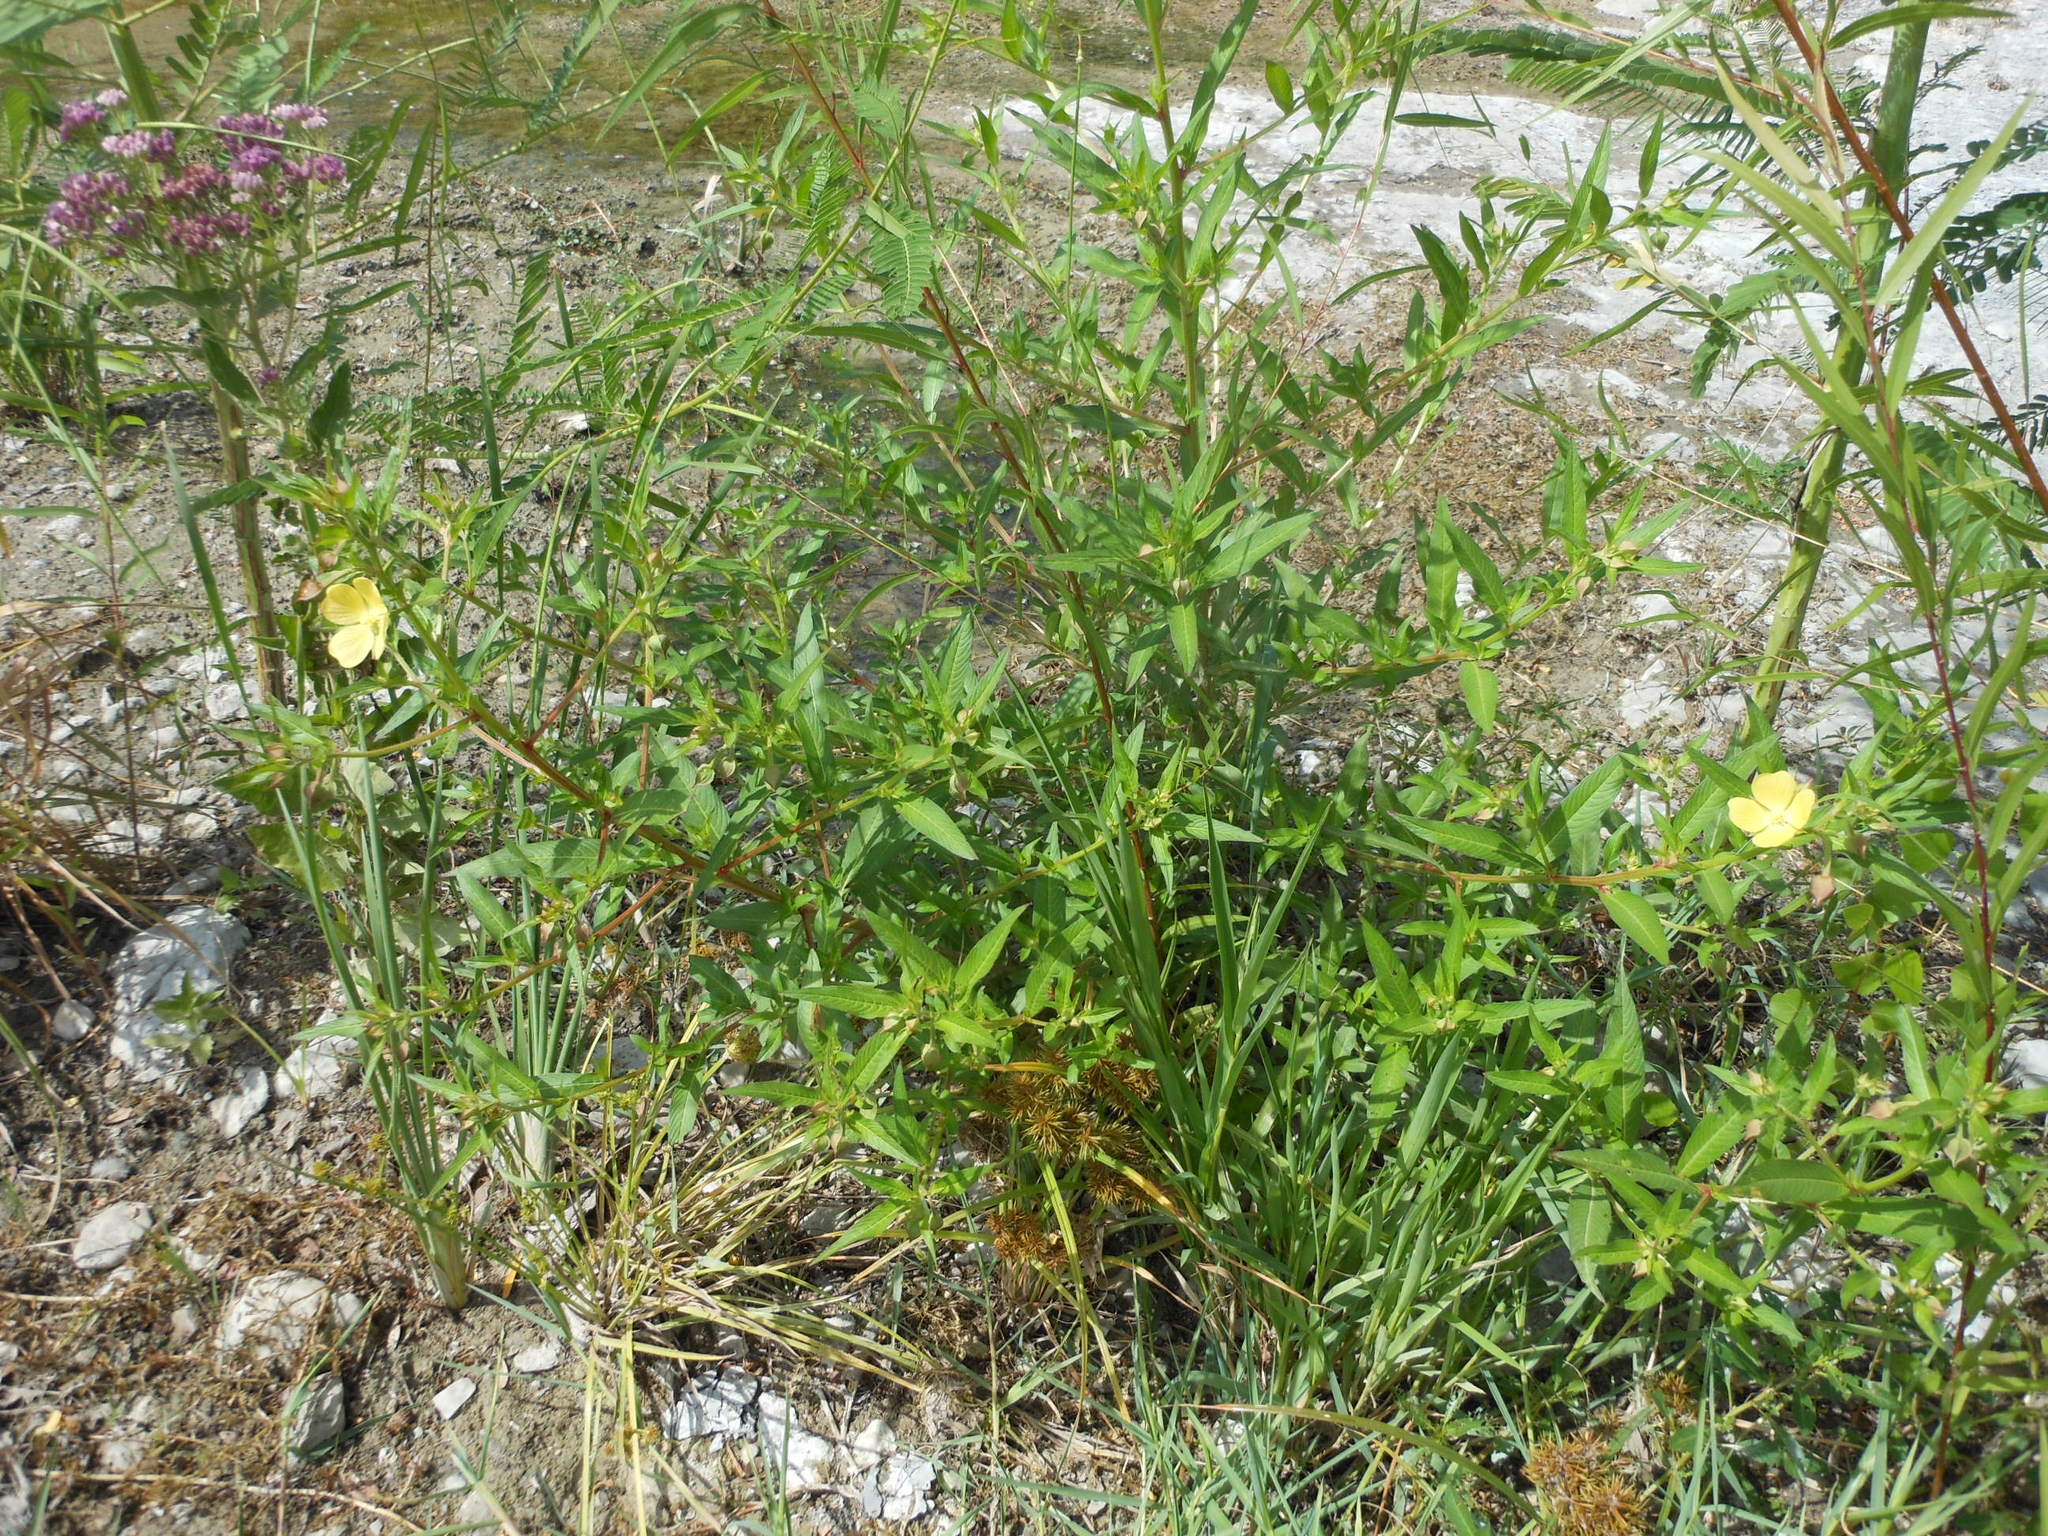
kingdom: Plantae
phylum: Tracheophyta
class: Magnoliopsida
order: Myrtales
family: Onagraceae
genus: Ludwigia
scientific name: Ludwigia octovalvis
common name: Water-primrose
